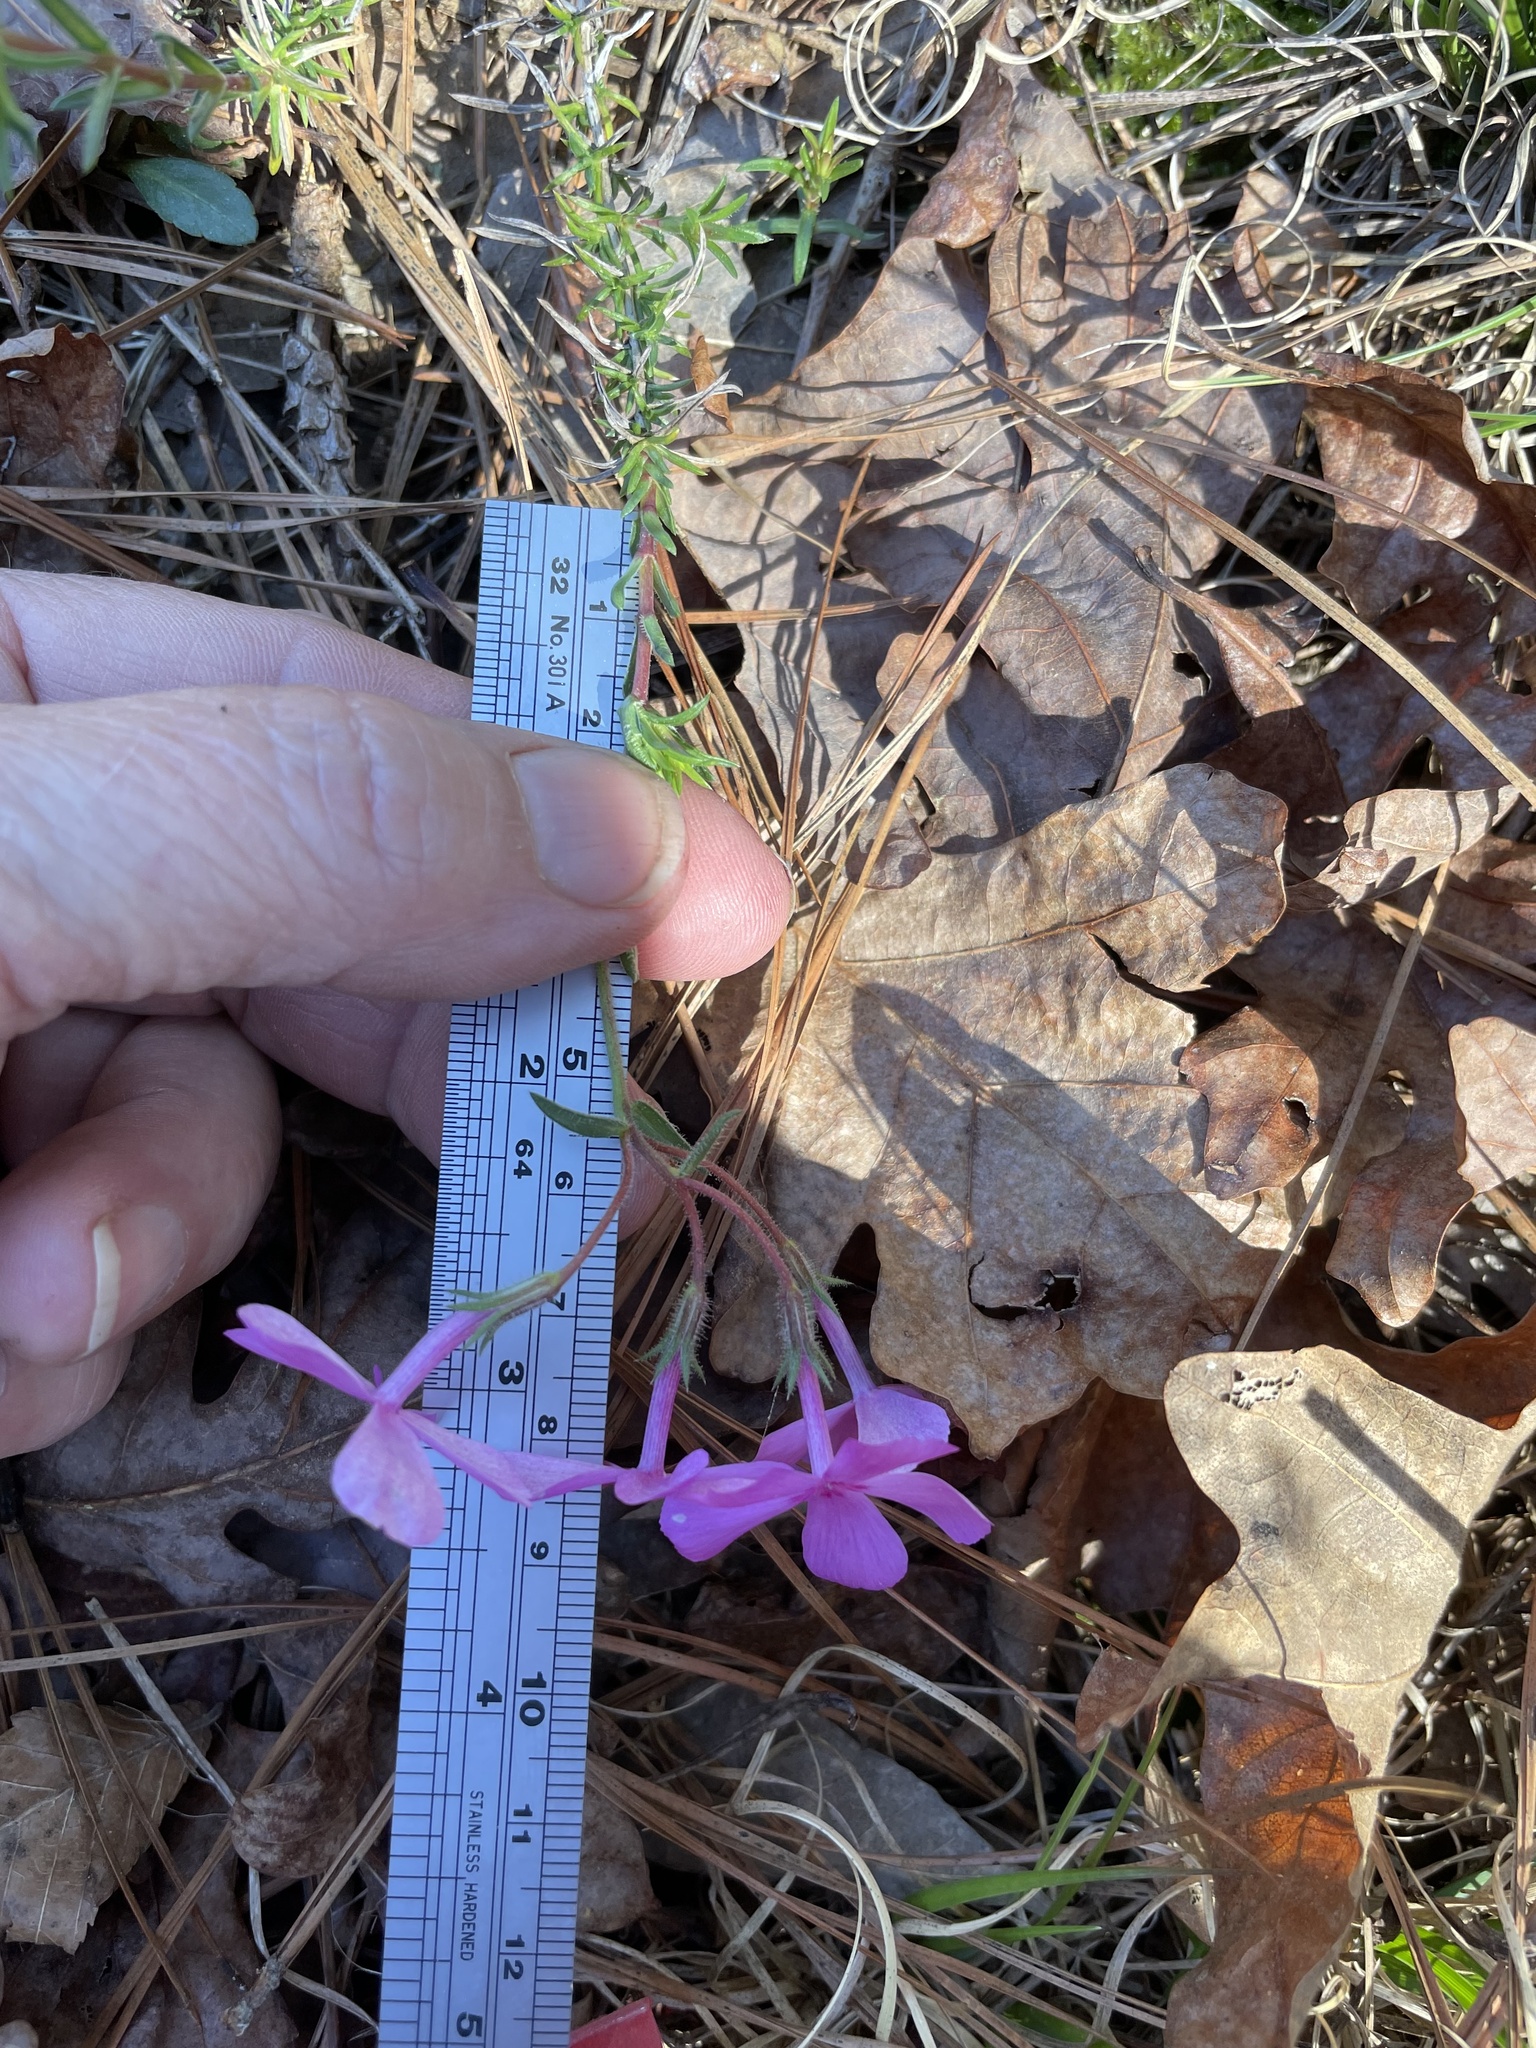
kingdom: Plantae
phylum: Tracheophyta
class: Magnoliopsida
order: Ericales
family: Polemoniaceae
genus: Phlox
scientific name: Phlox nivalis
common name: Trailing phlox
